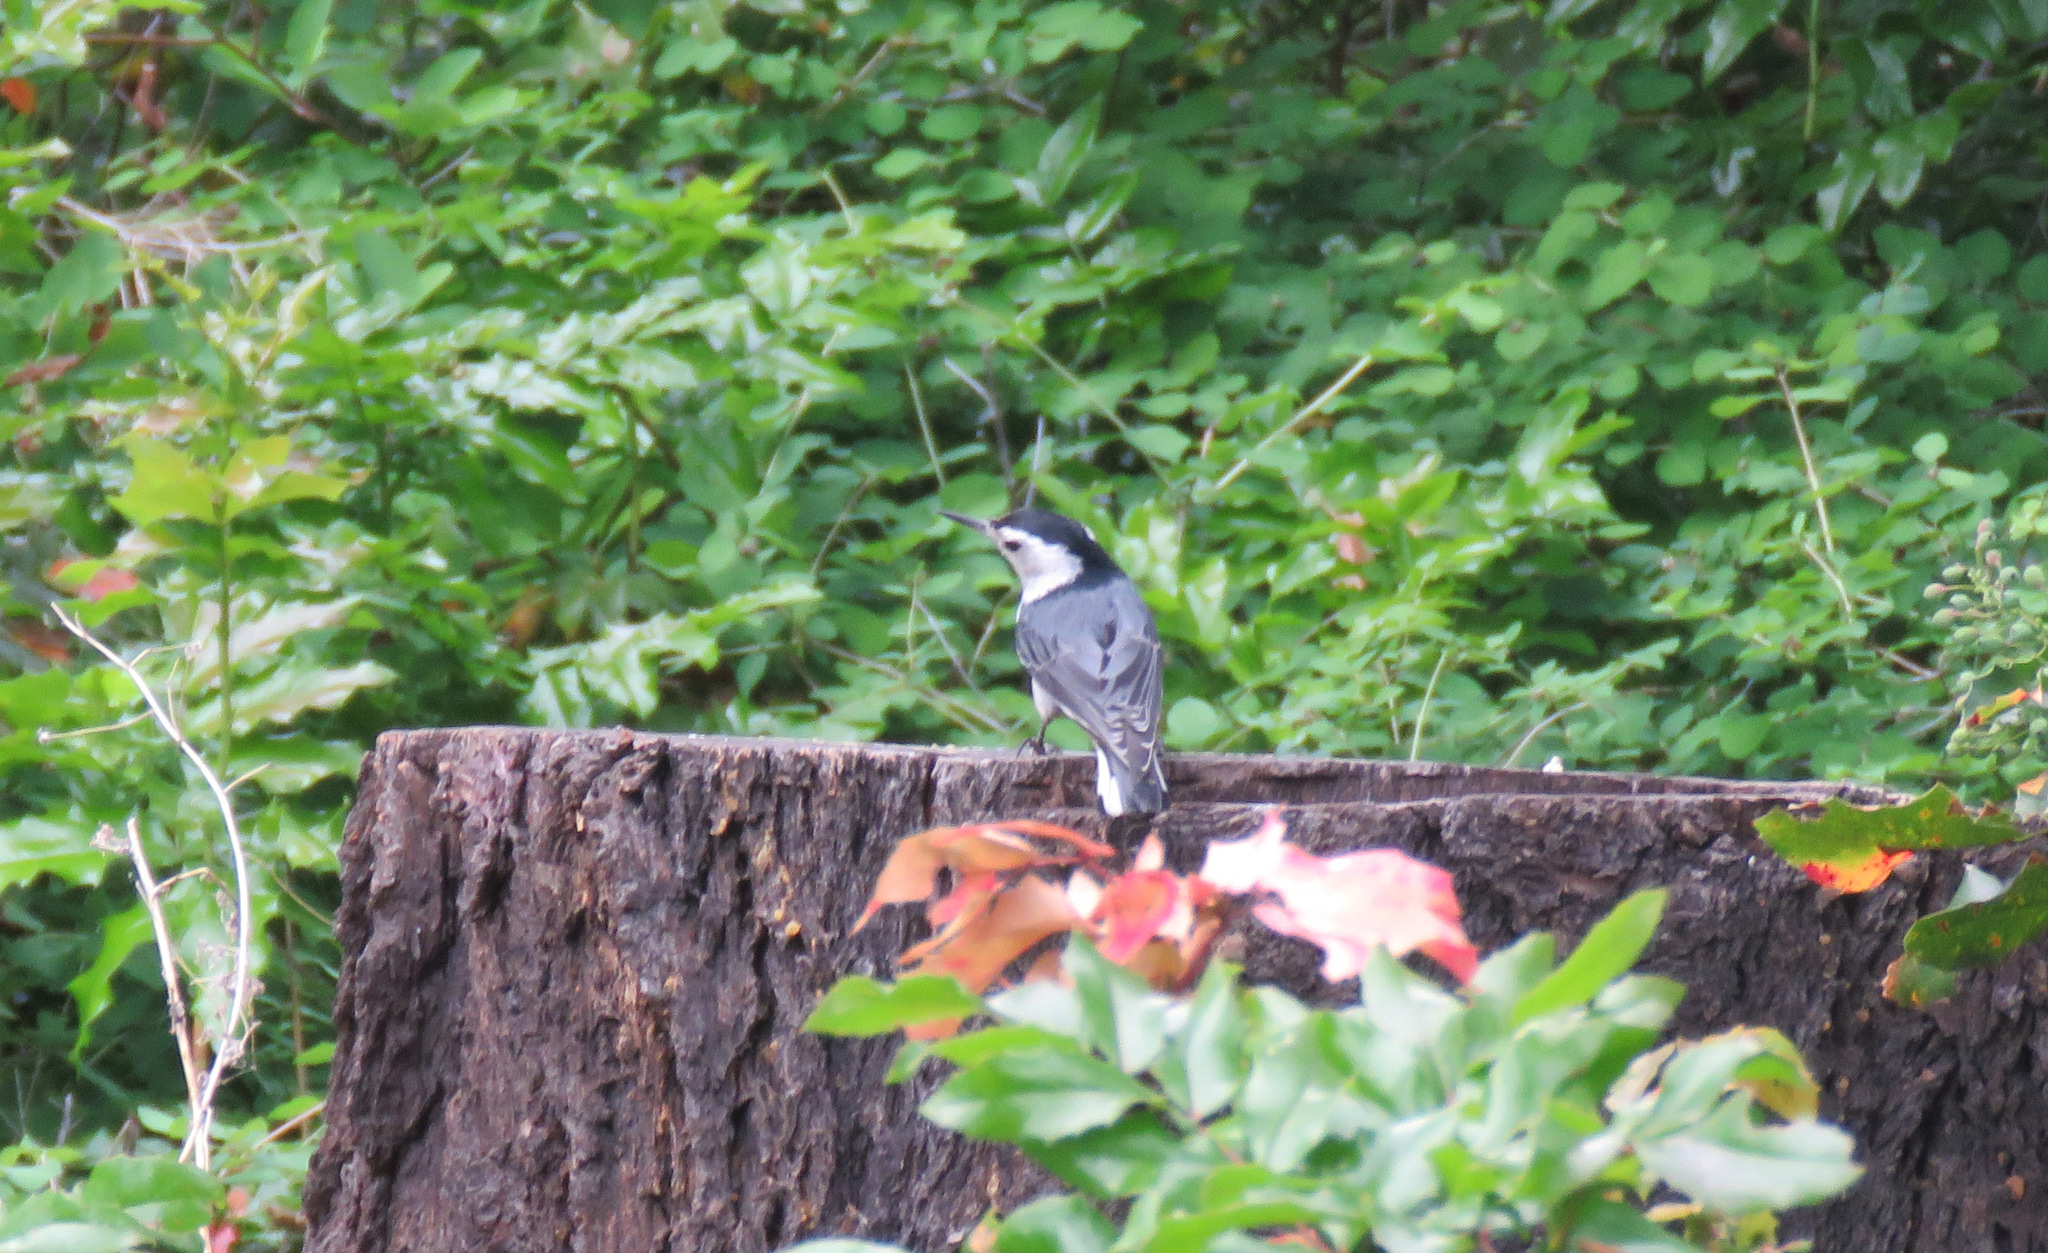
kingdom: Animalia
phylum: Chordata
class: Aves
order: Passeriformes
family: Sittidae
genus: Sitta
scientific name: Sitta carolinensis
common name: White-breasted nuthatch
